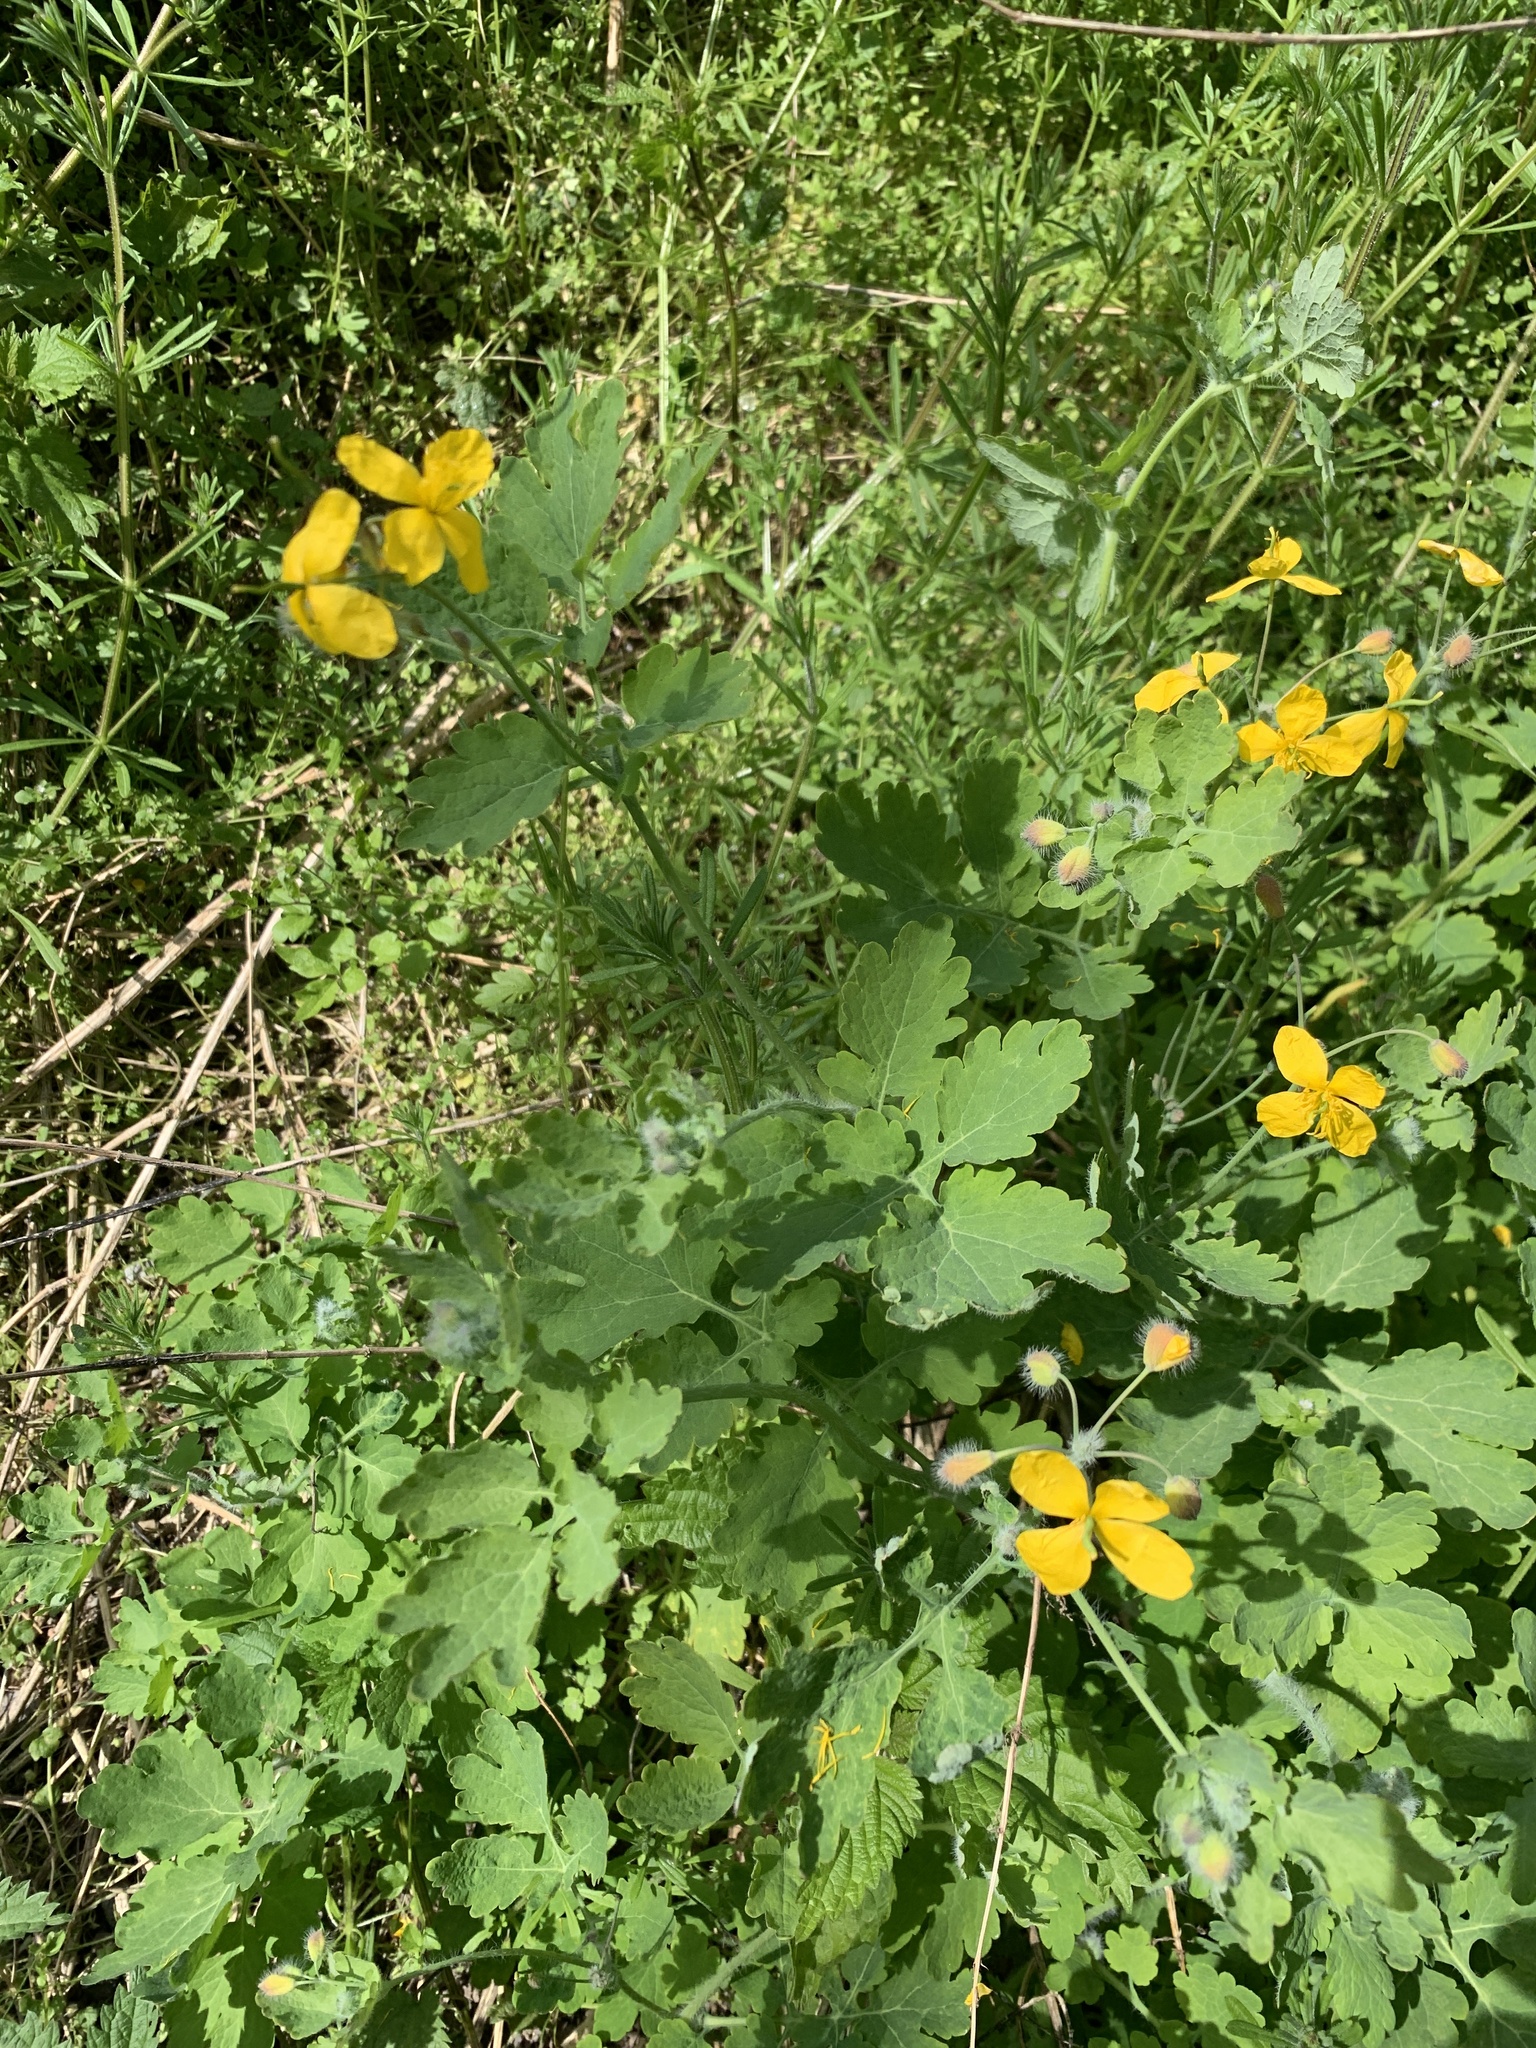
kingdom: Plantae
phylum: Tracheophyta
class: Magnoliopsida
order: Ranunculales
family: Papaveraceae
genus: Chelidonium
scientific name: Chelidonium majus
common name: Greater celandine
